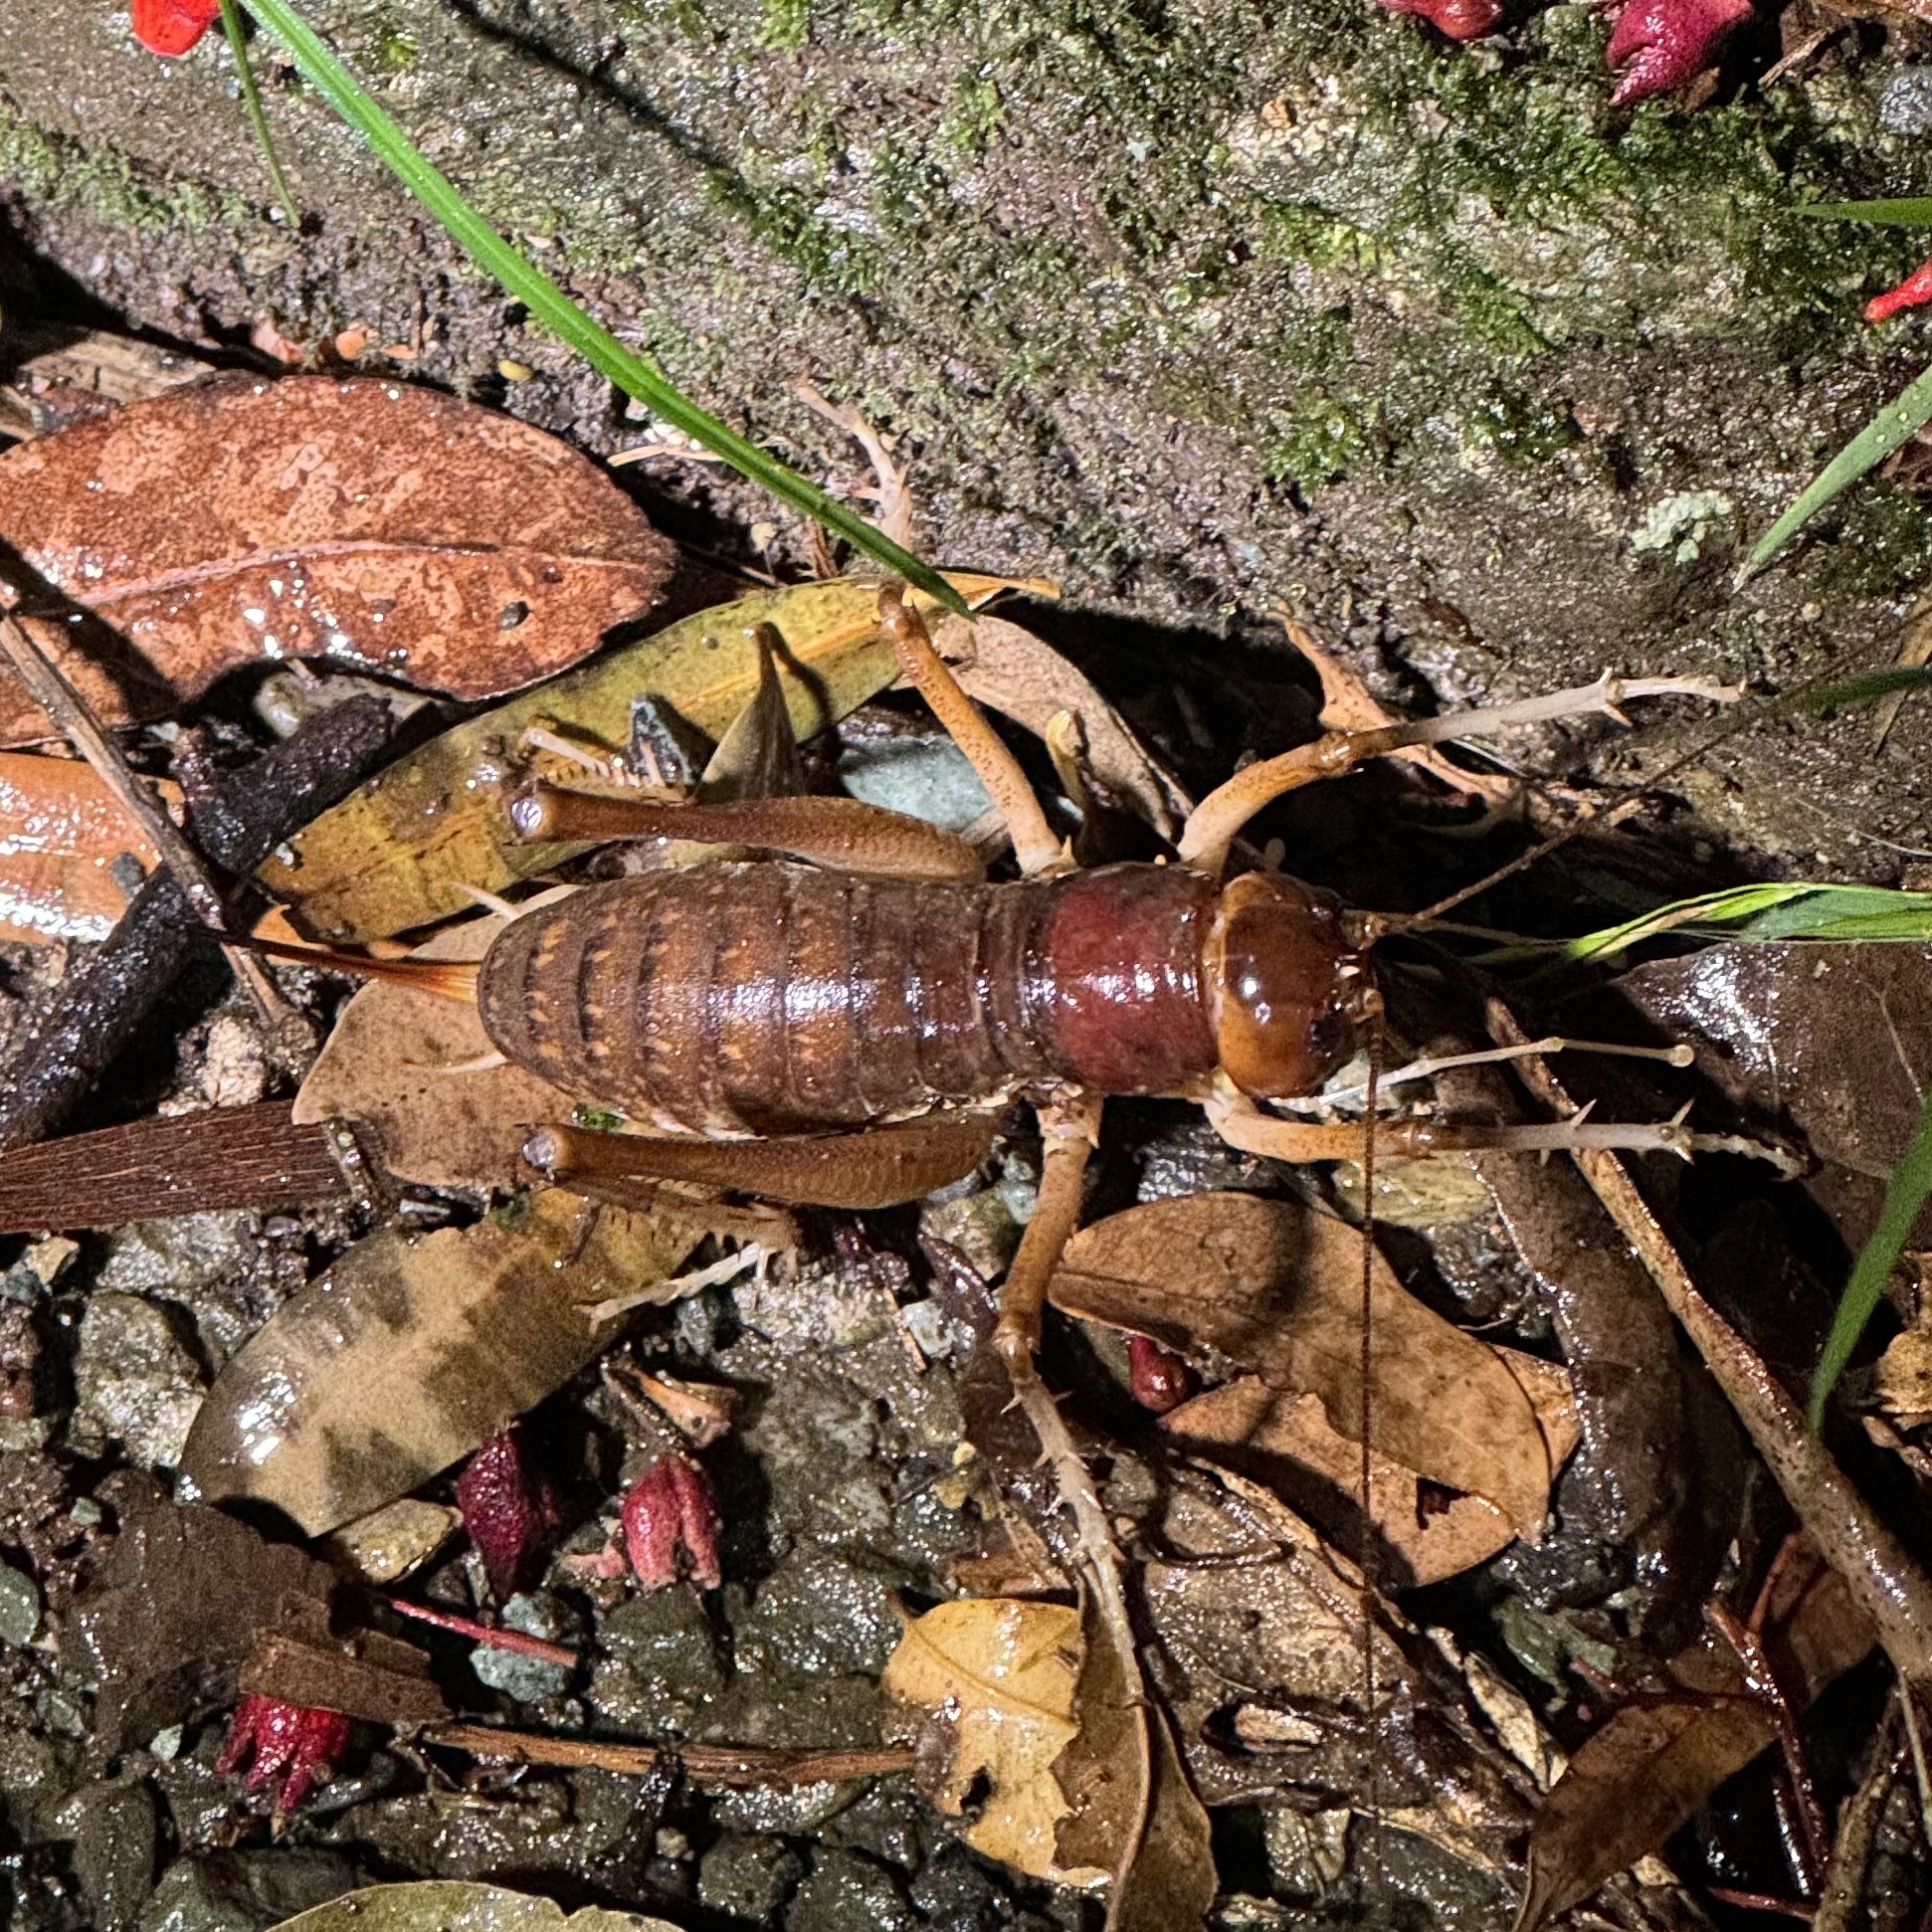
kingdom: Animalia
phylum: Arthropoda
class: Insecta
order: Orthoptera
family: Anostostomatidae
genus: Anostostoma
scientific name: Anostostoma australasiae
